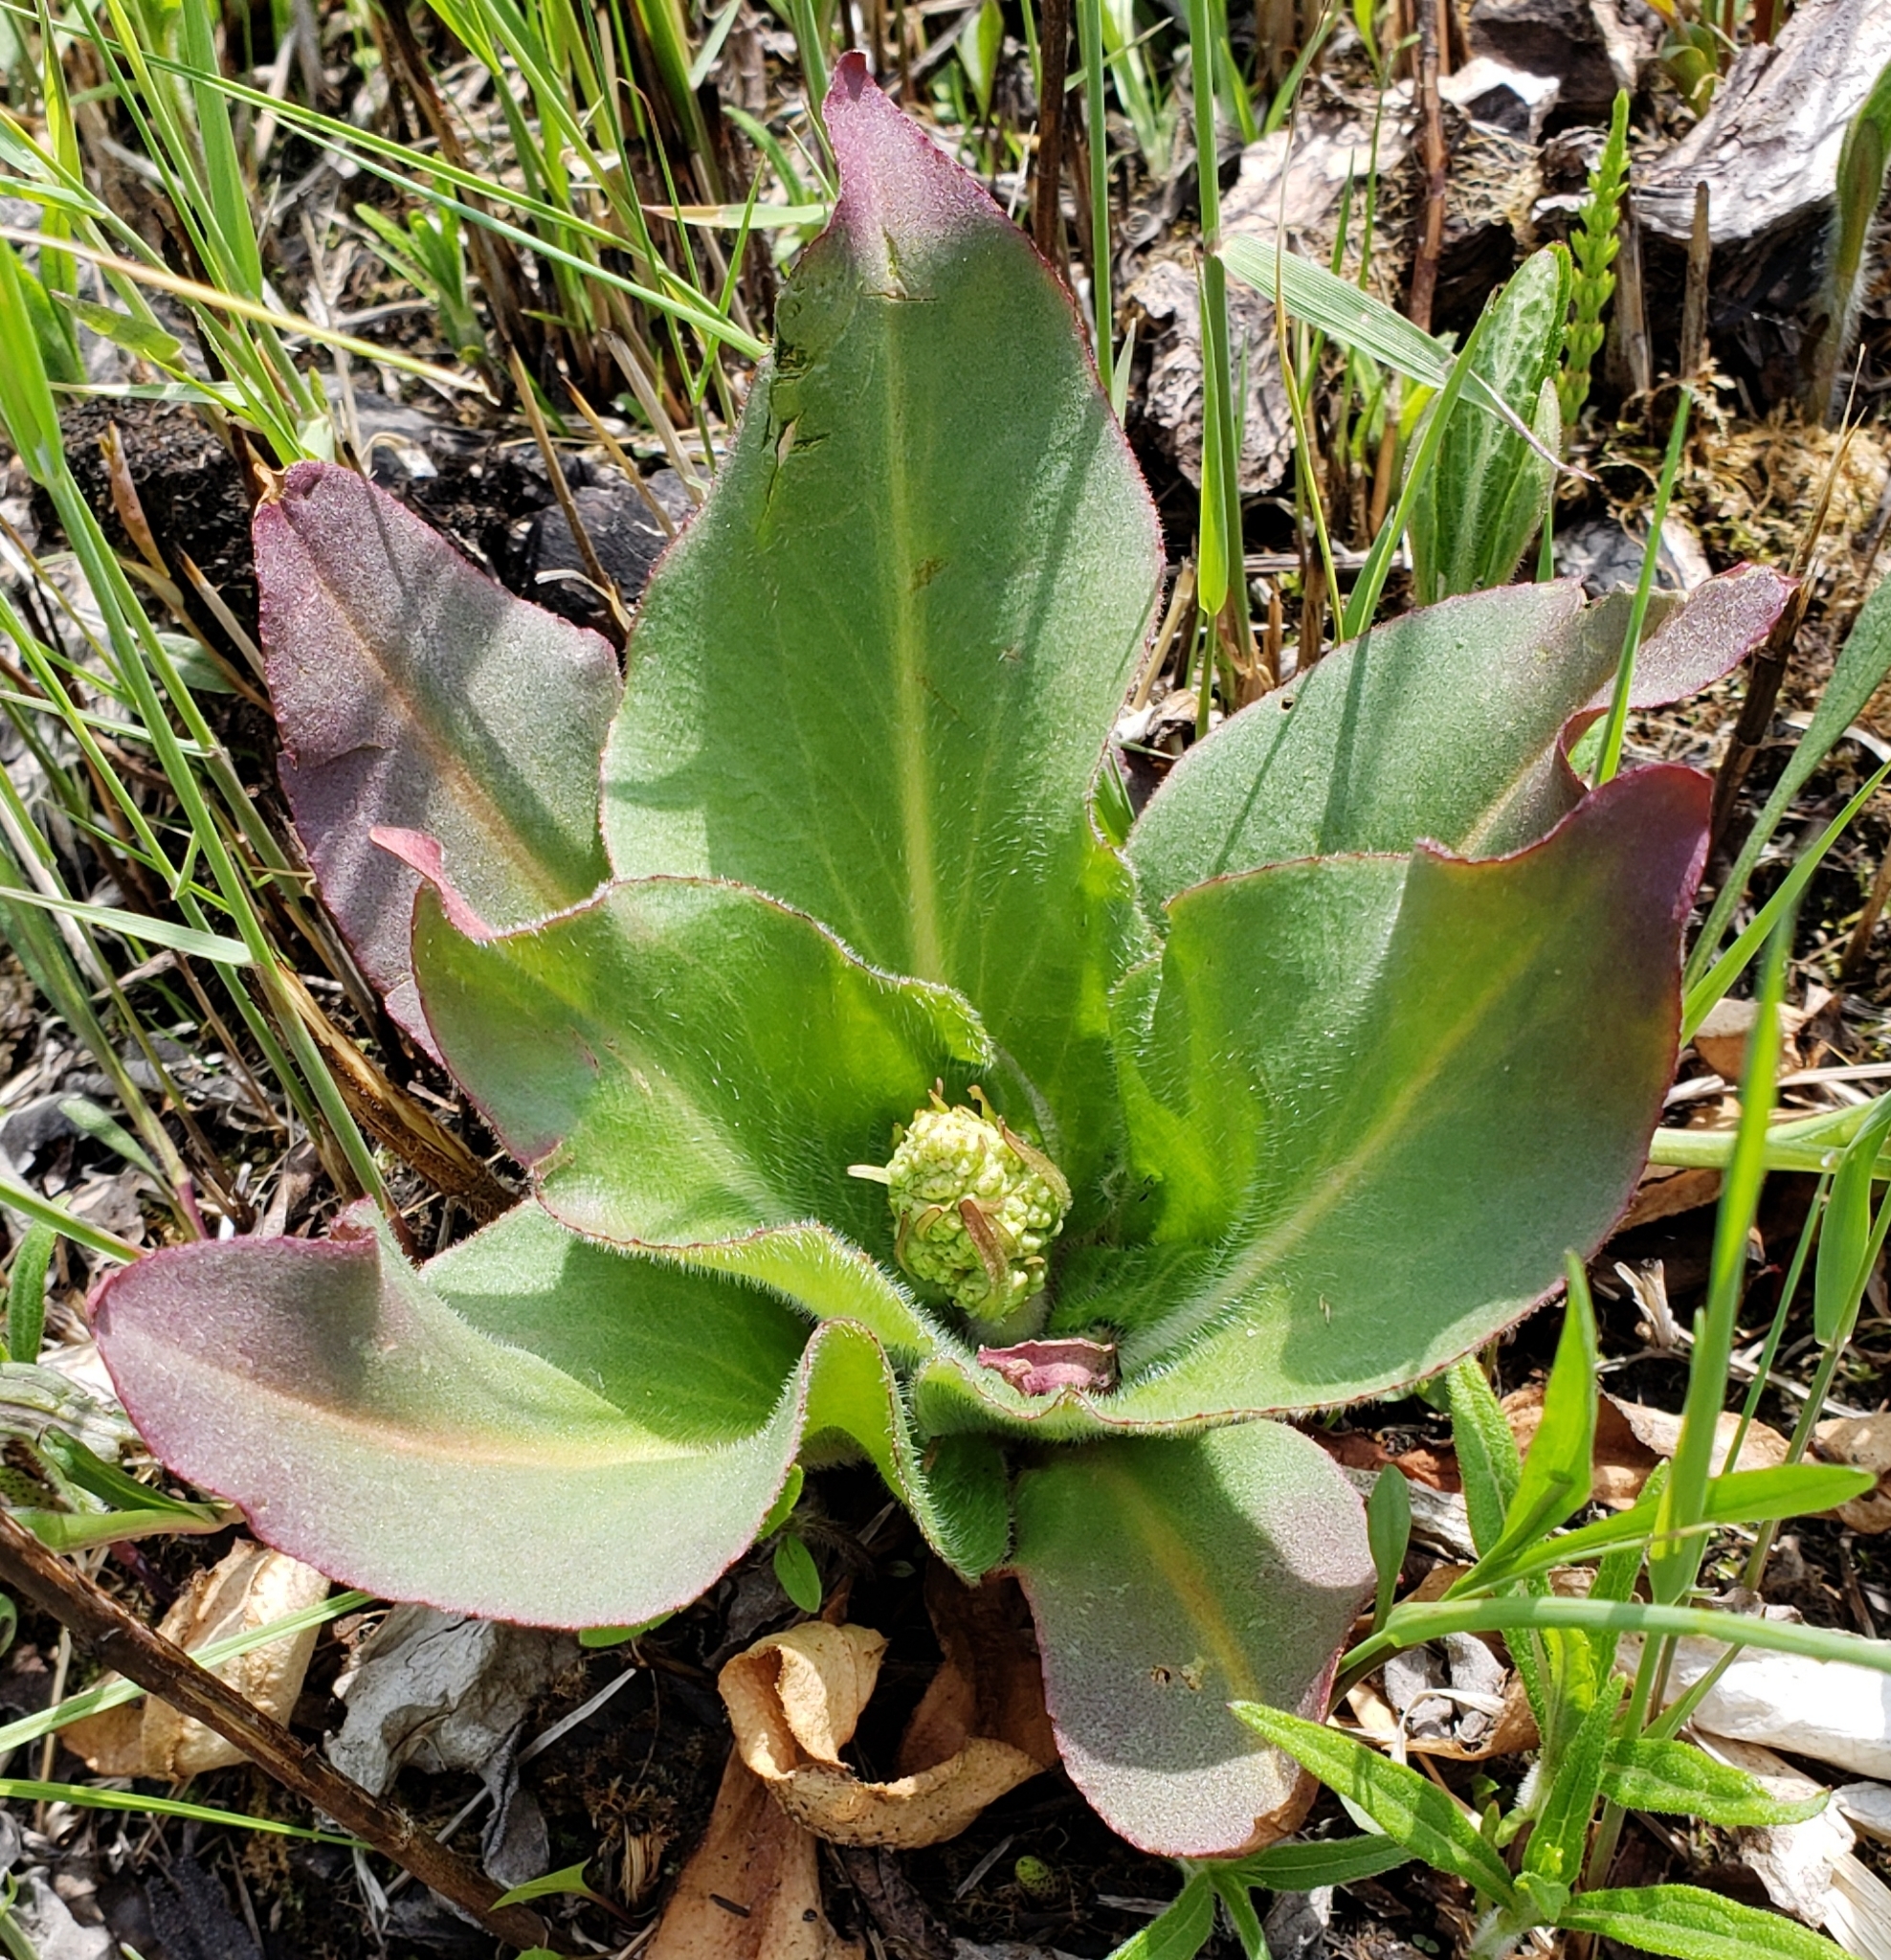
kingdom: Plantae
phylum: Tracheophyta
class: Magnoliopsida
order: Saxifragales
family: Saxifragaceae
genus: Micranthes
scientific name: Micranthes pensylvanica
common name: Marsh saxifrage
